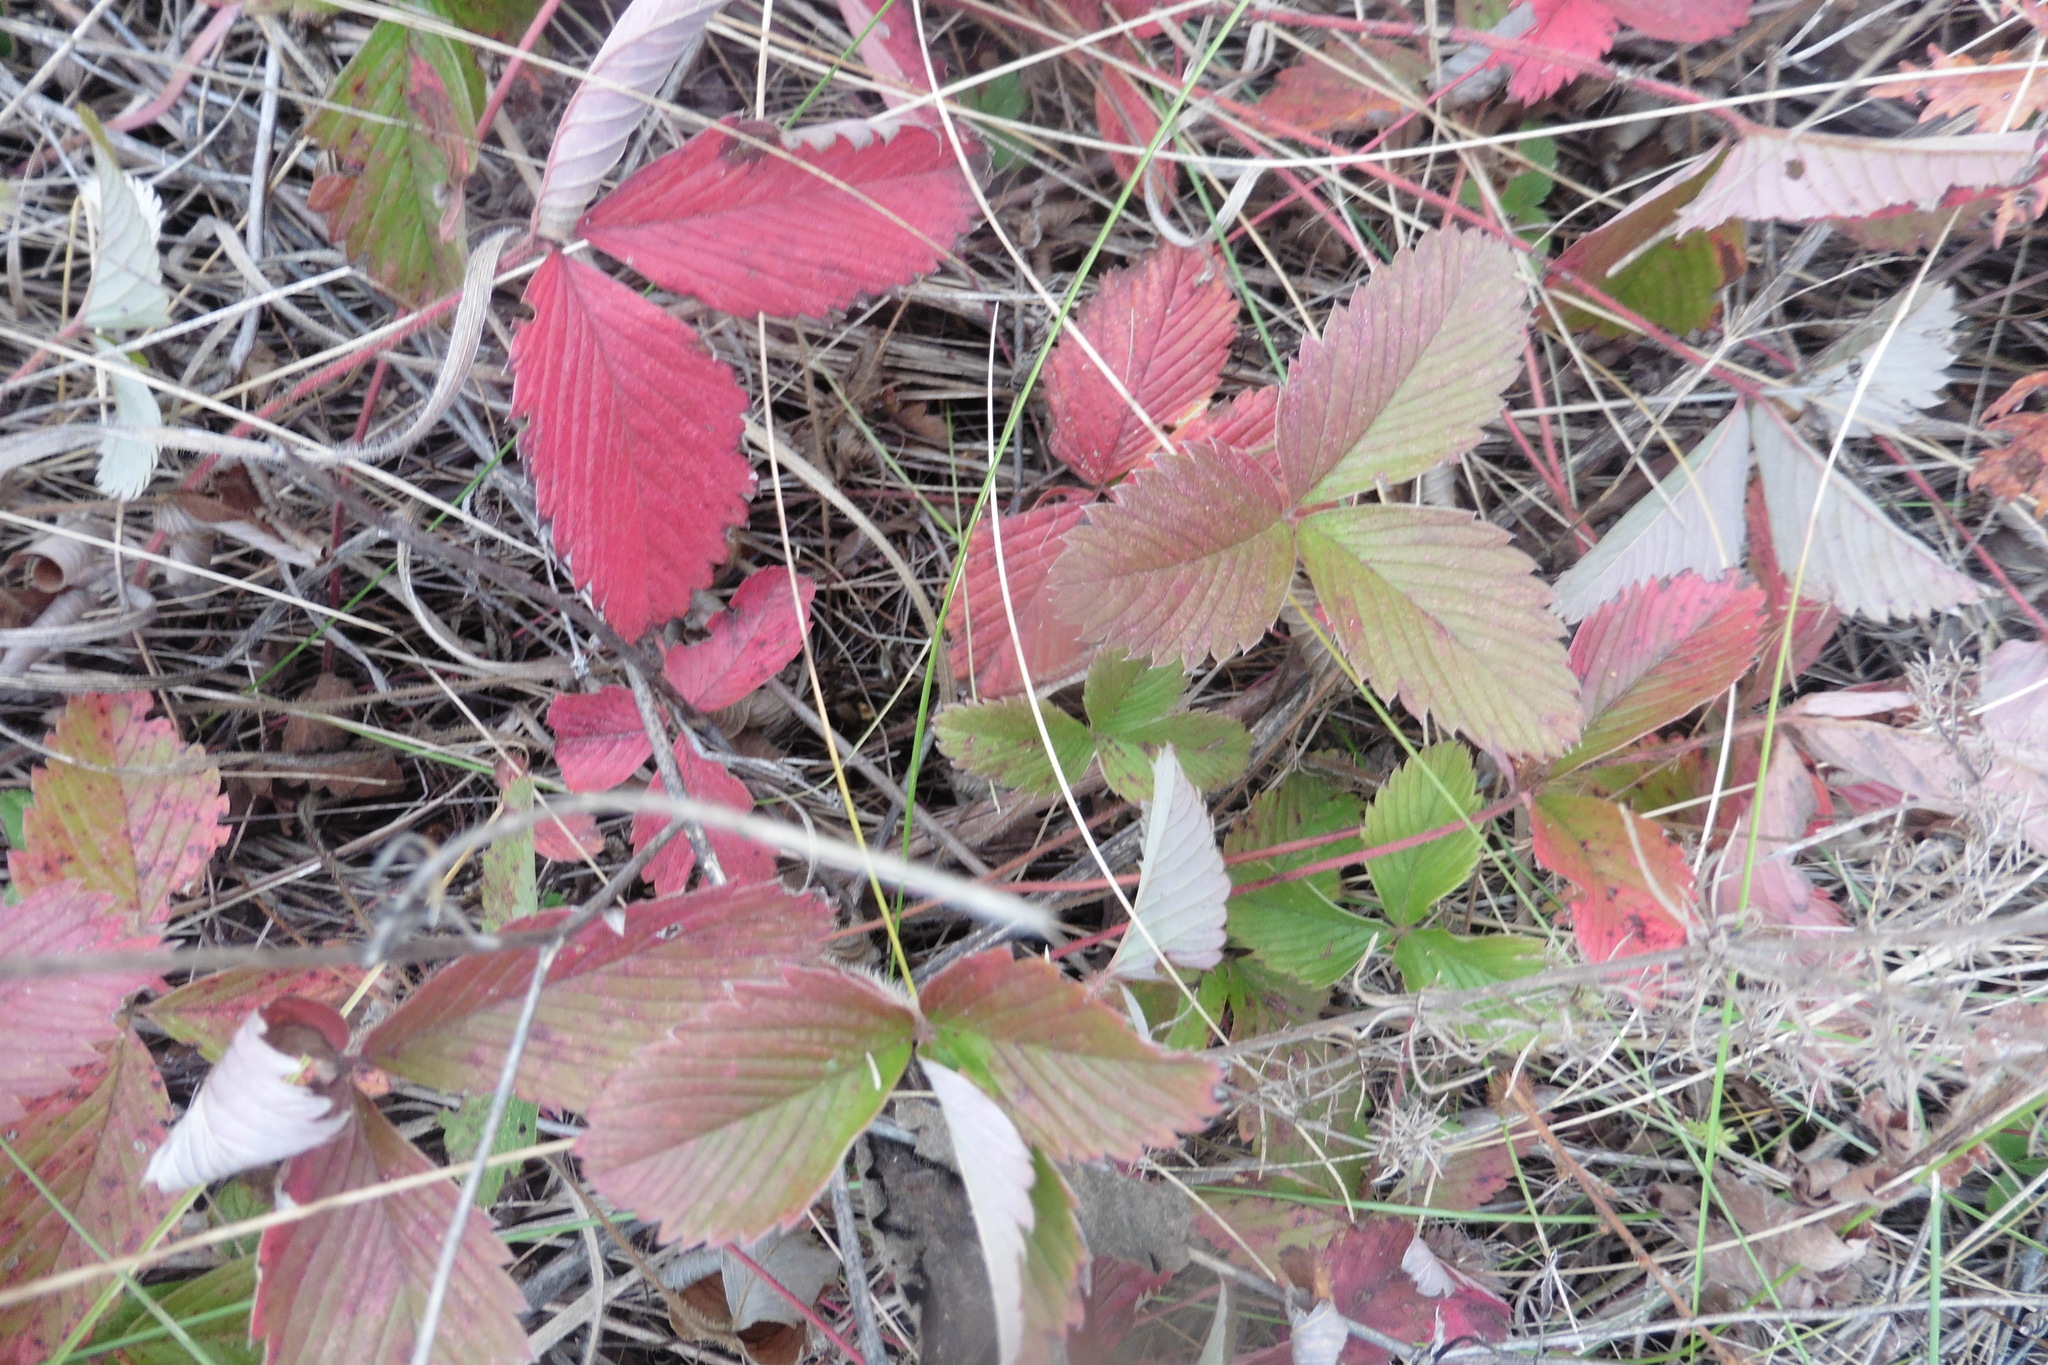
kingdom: Plantae
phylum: Tracheophyta
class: Magnoliopsida
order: Rosales
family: Rosaceae
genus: Fragaria
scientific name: Fragaria viridis
